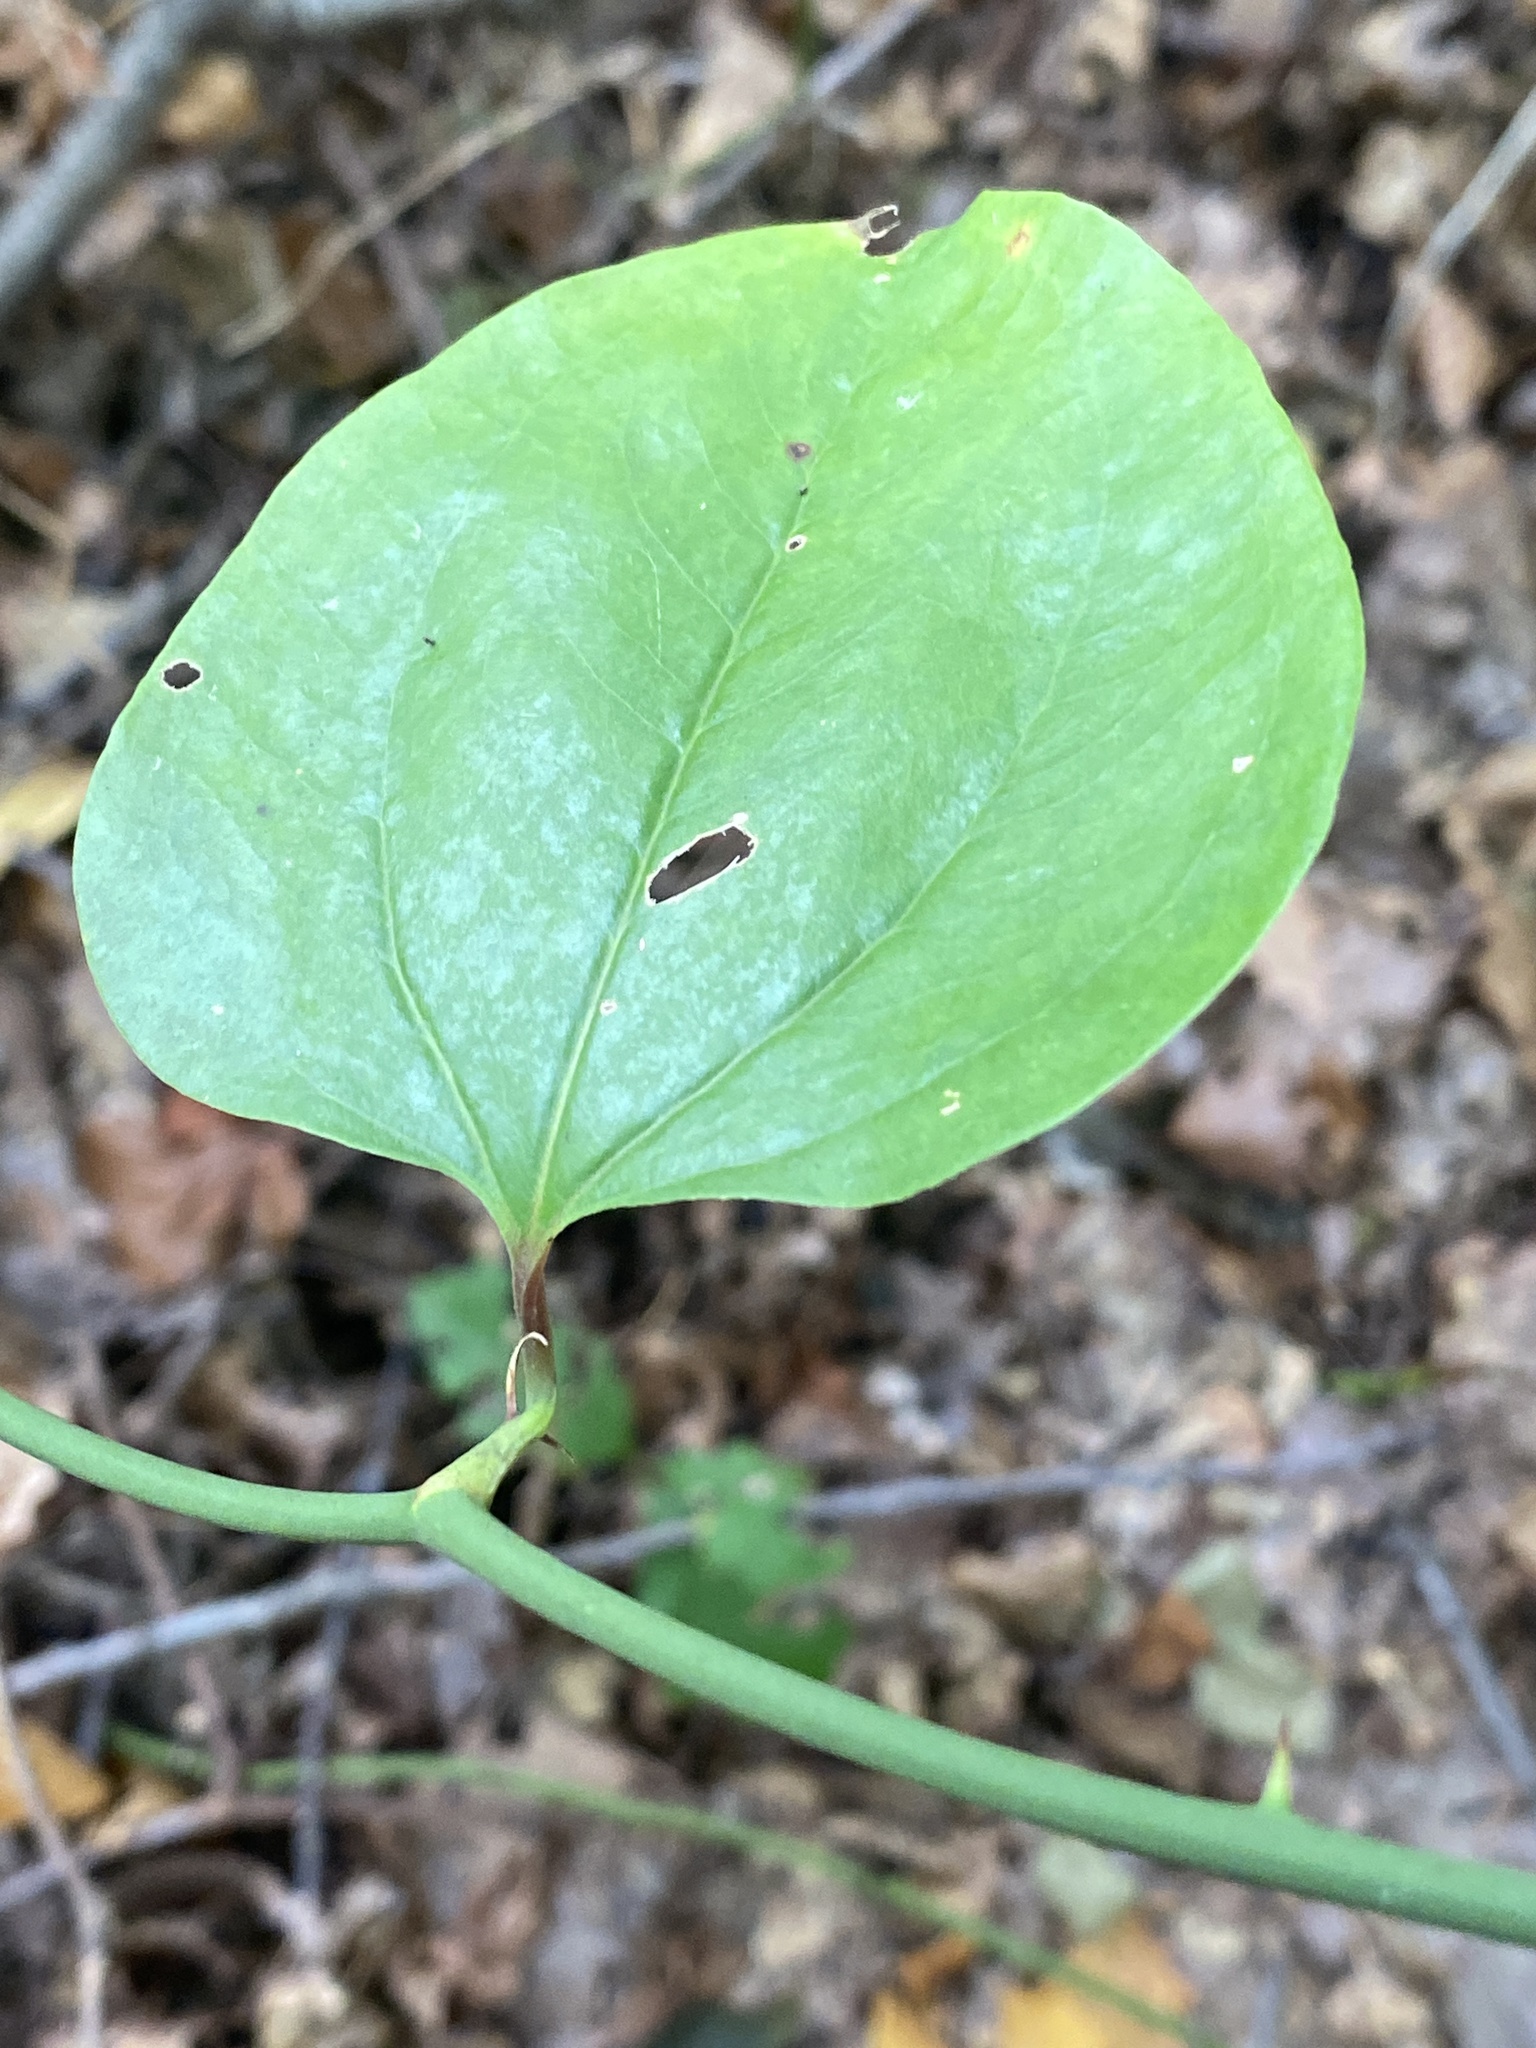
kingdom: Plantae
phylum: Tracheophyta
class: Liliopsida
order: Liliales
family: Smilacaceae
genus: Smilax
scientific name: Smilax rotundifolia
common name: Bullbriar
